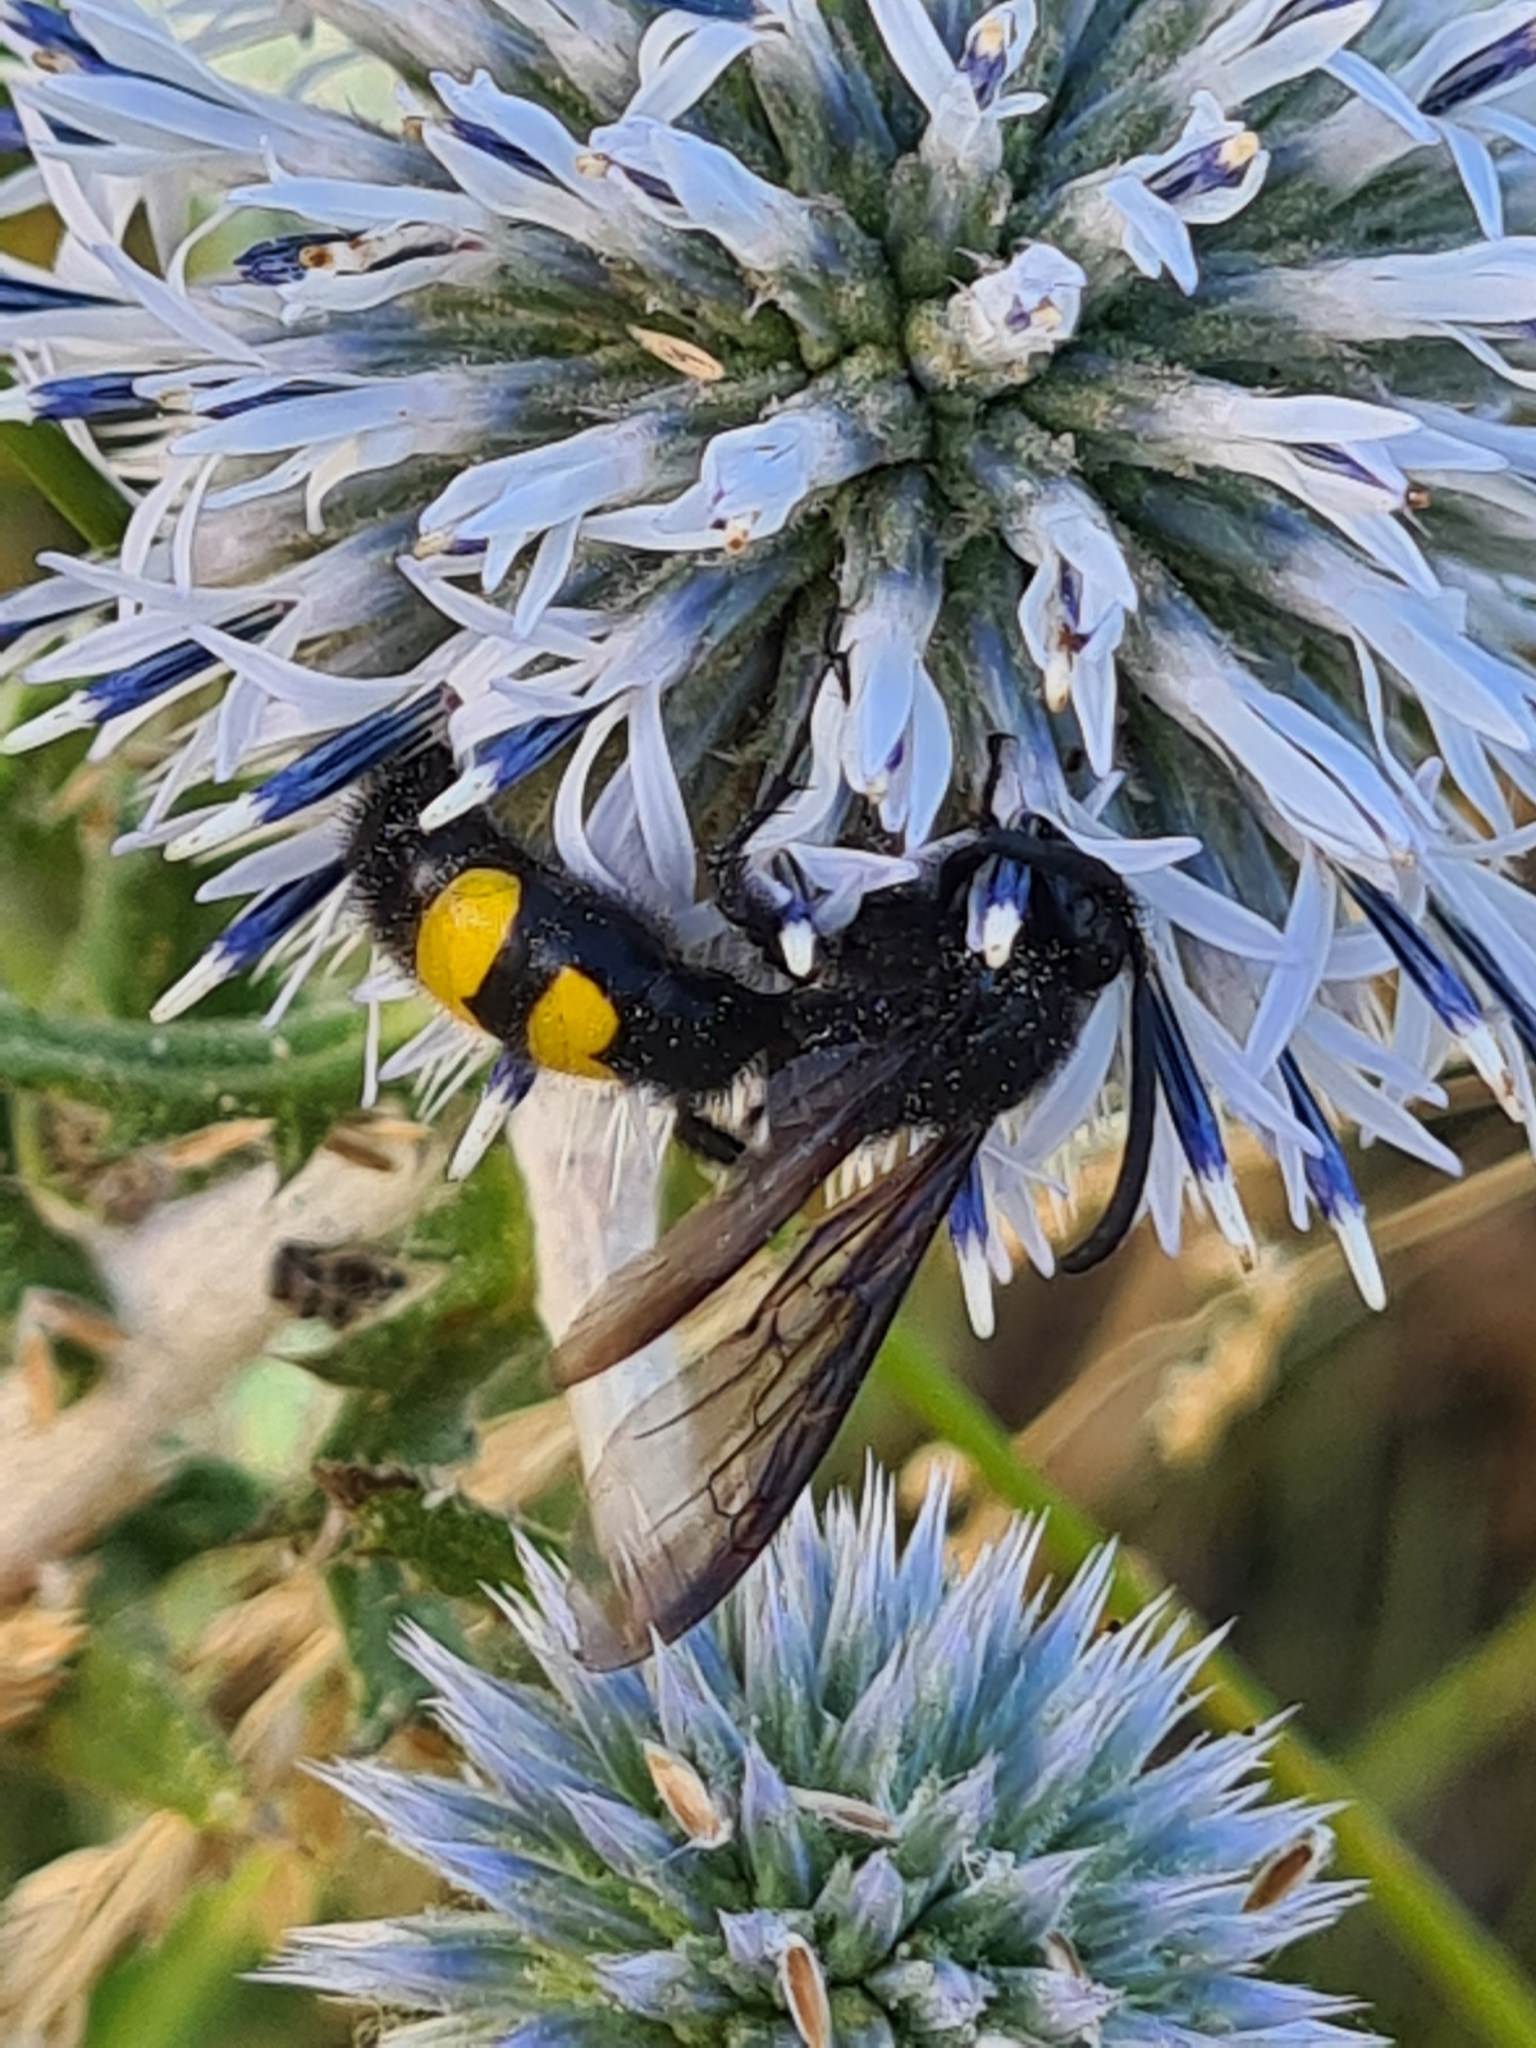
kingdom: Animalia
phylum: Arthropoda
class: Insecta
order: Hymenoptera
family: Scoliidae
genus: Scolia
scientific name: Scolia hirta
